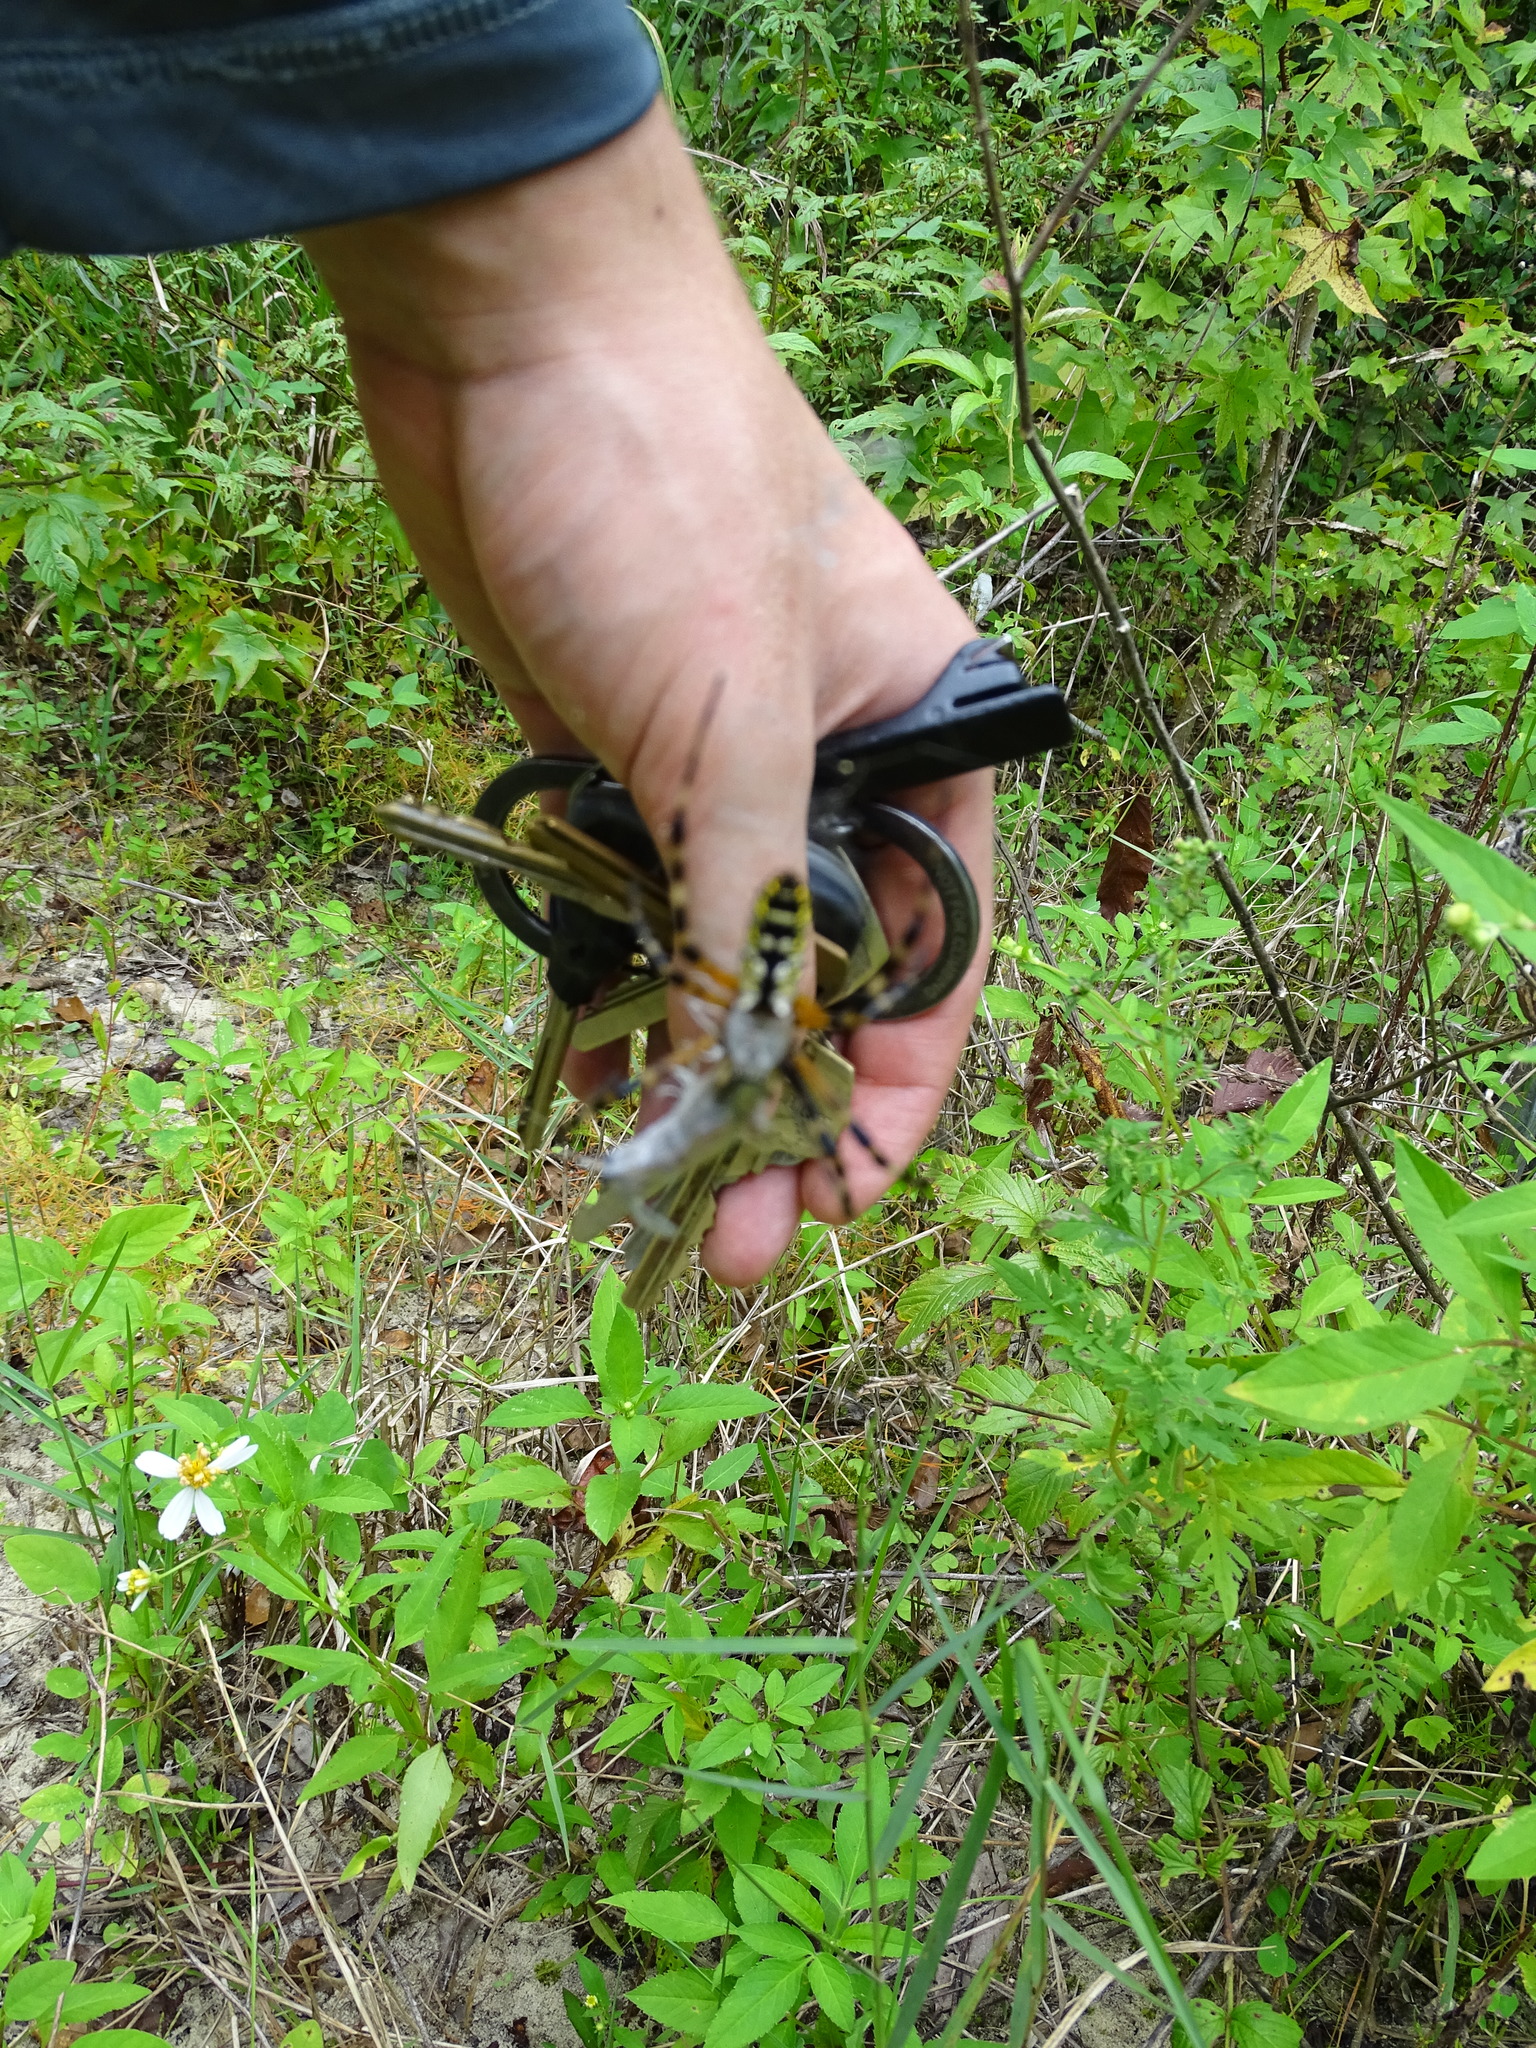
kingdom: Animalia
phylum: Arthropoda
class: Arachnida
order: Araneae
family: Araneidae
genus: Argiope
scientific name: Argiope aurantia
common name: Orb weavers
